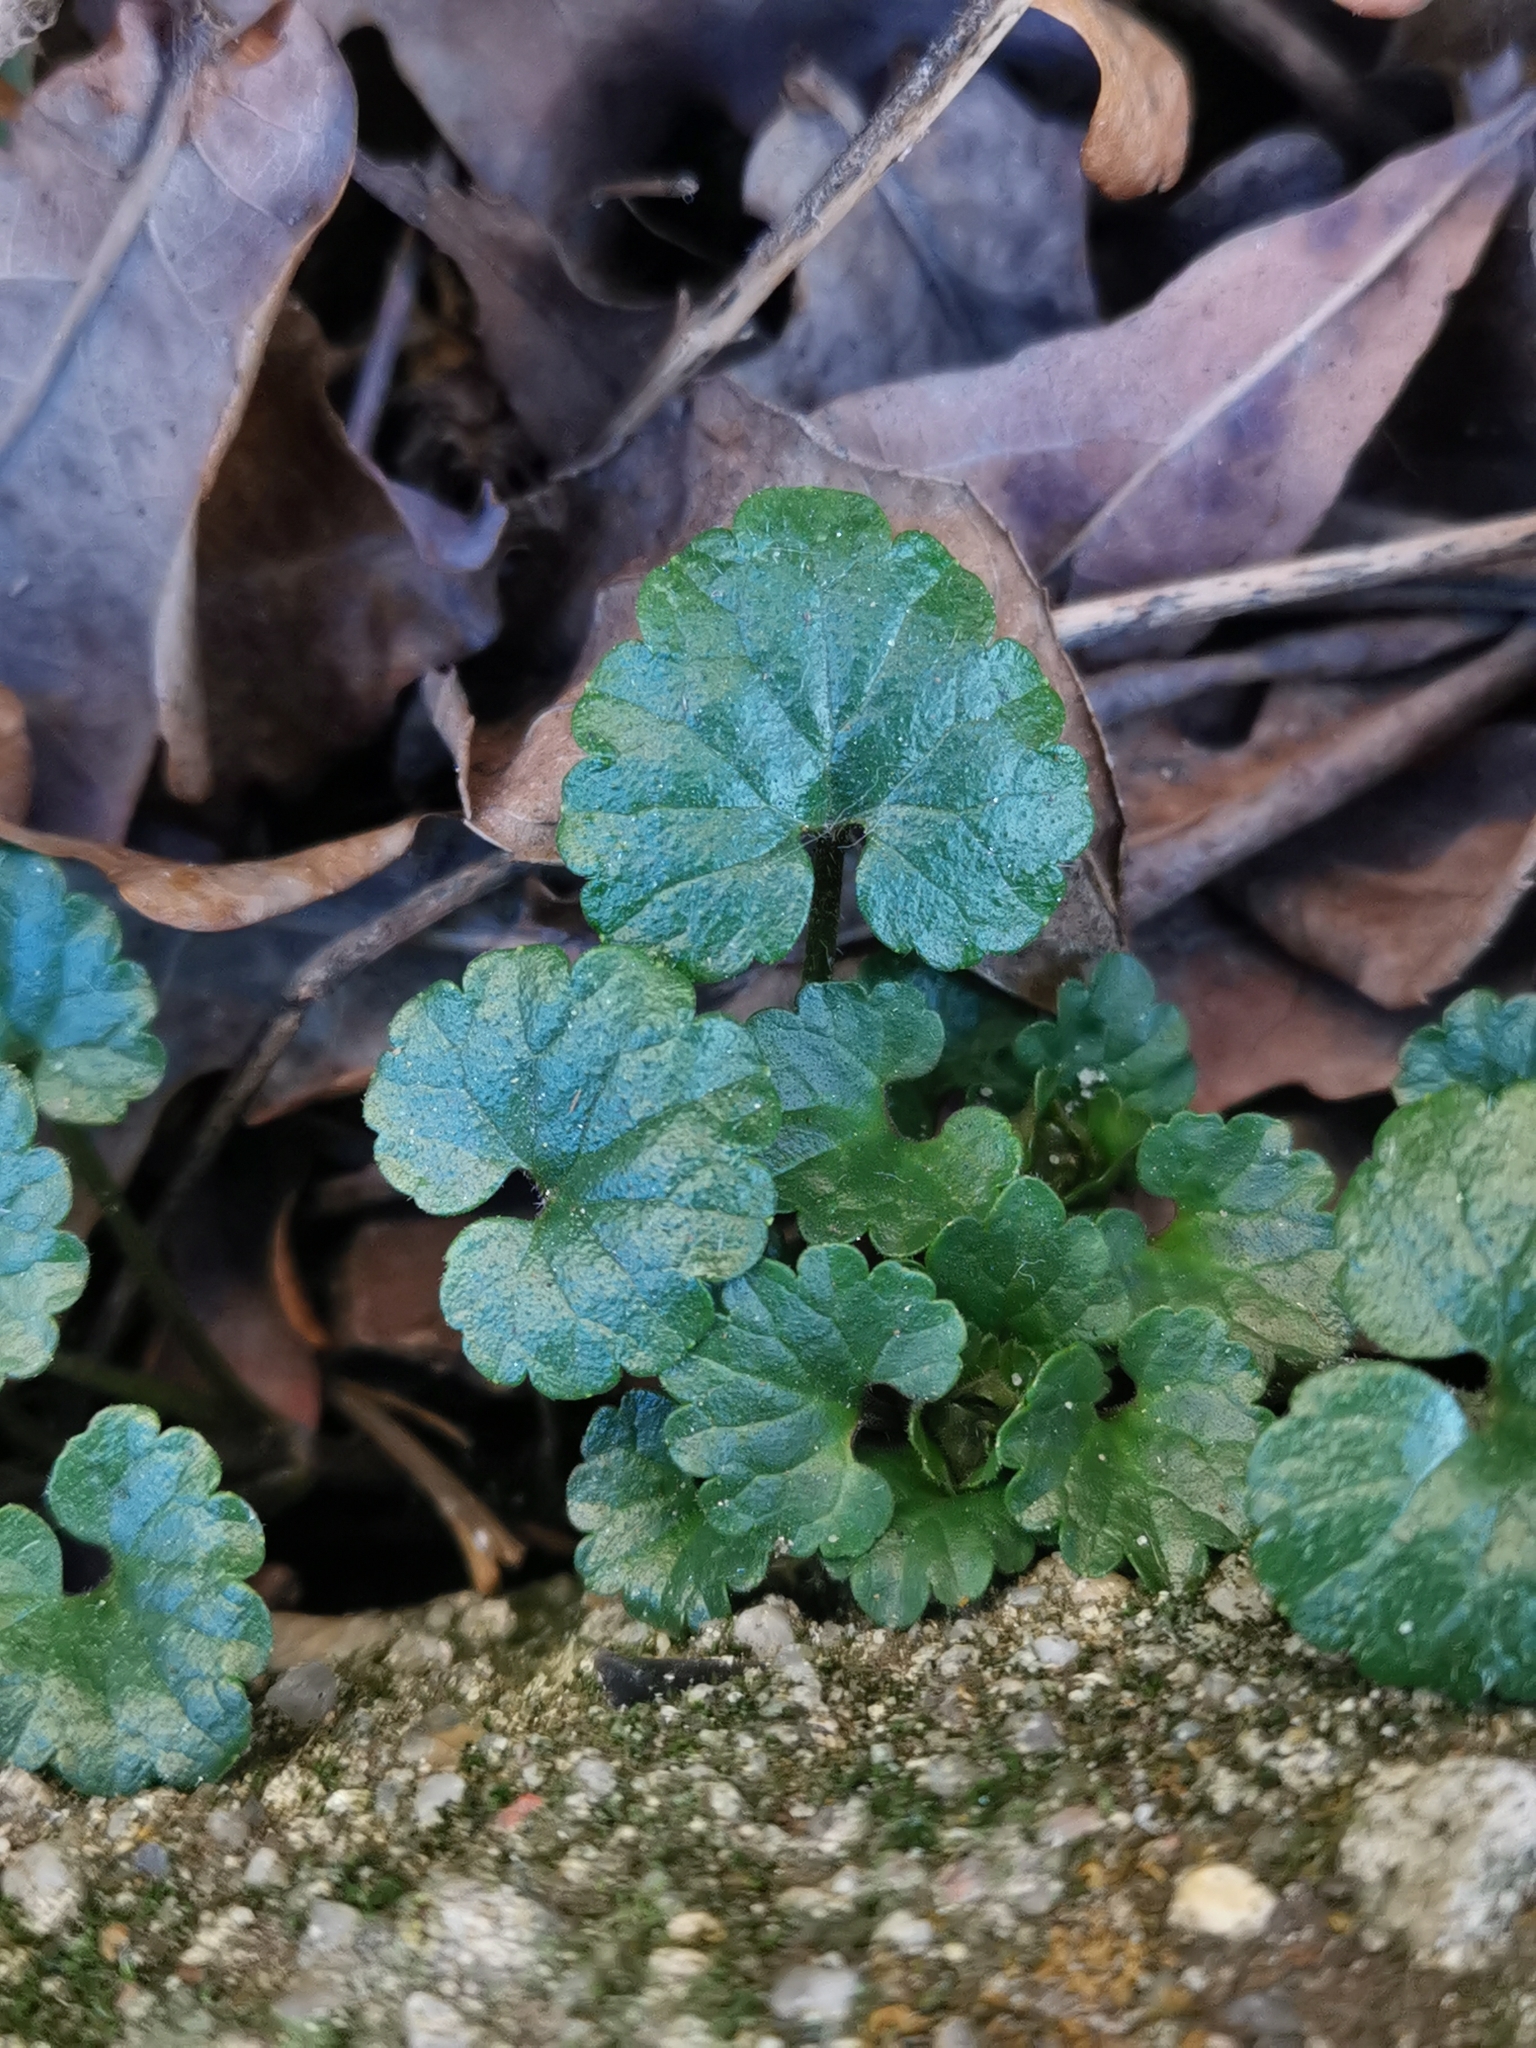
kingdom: Plantae
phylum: Tracheophyta
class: Magnoliopsida
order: Lamiales
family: Lamiaceae
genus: Glechoma
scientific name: Glechoma hederacea
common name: Ground ivy
